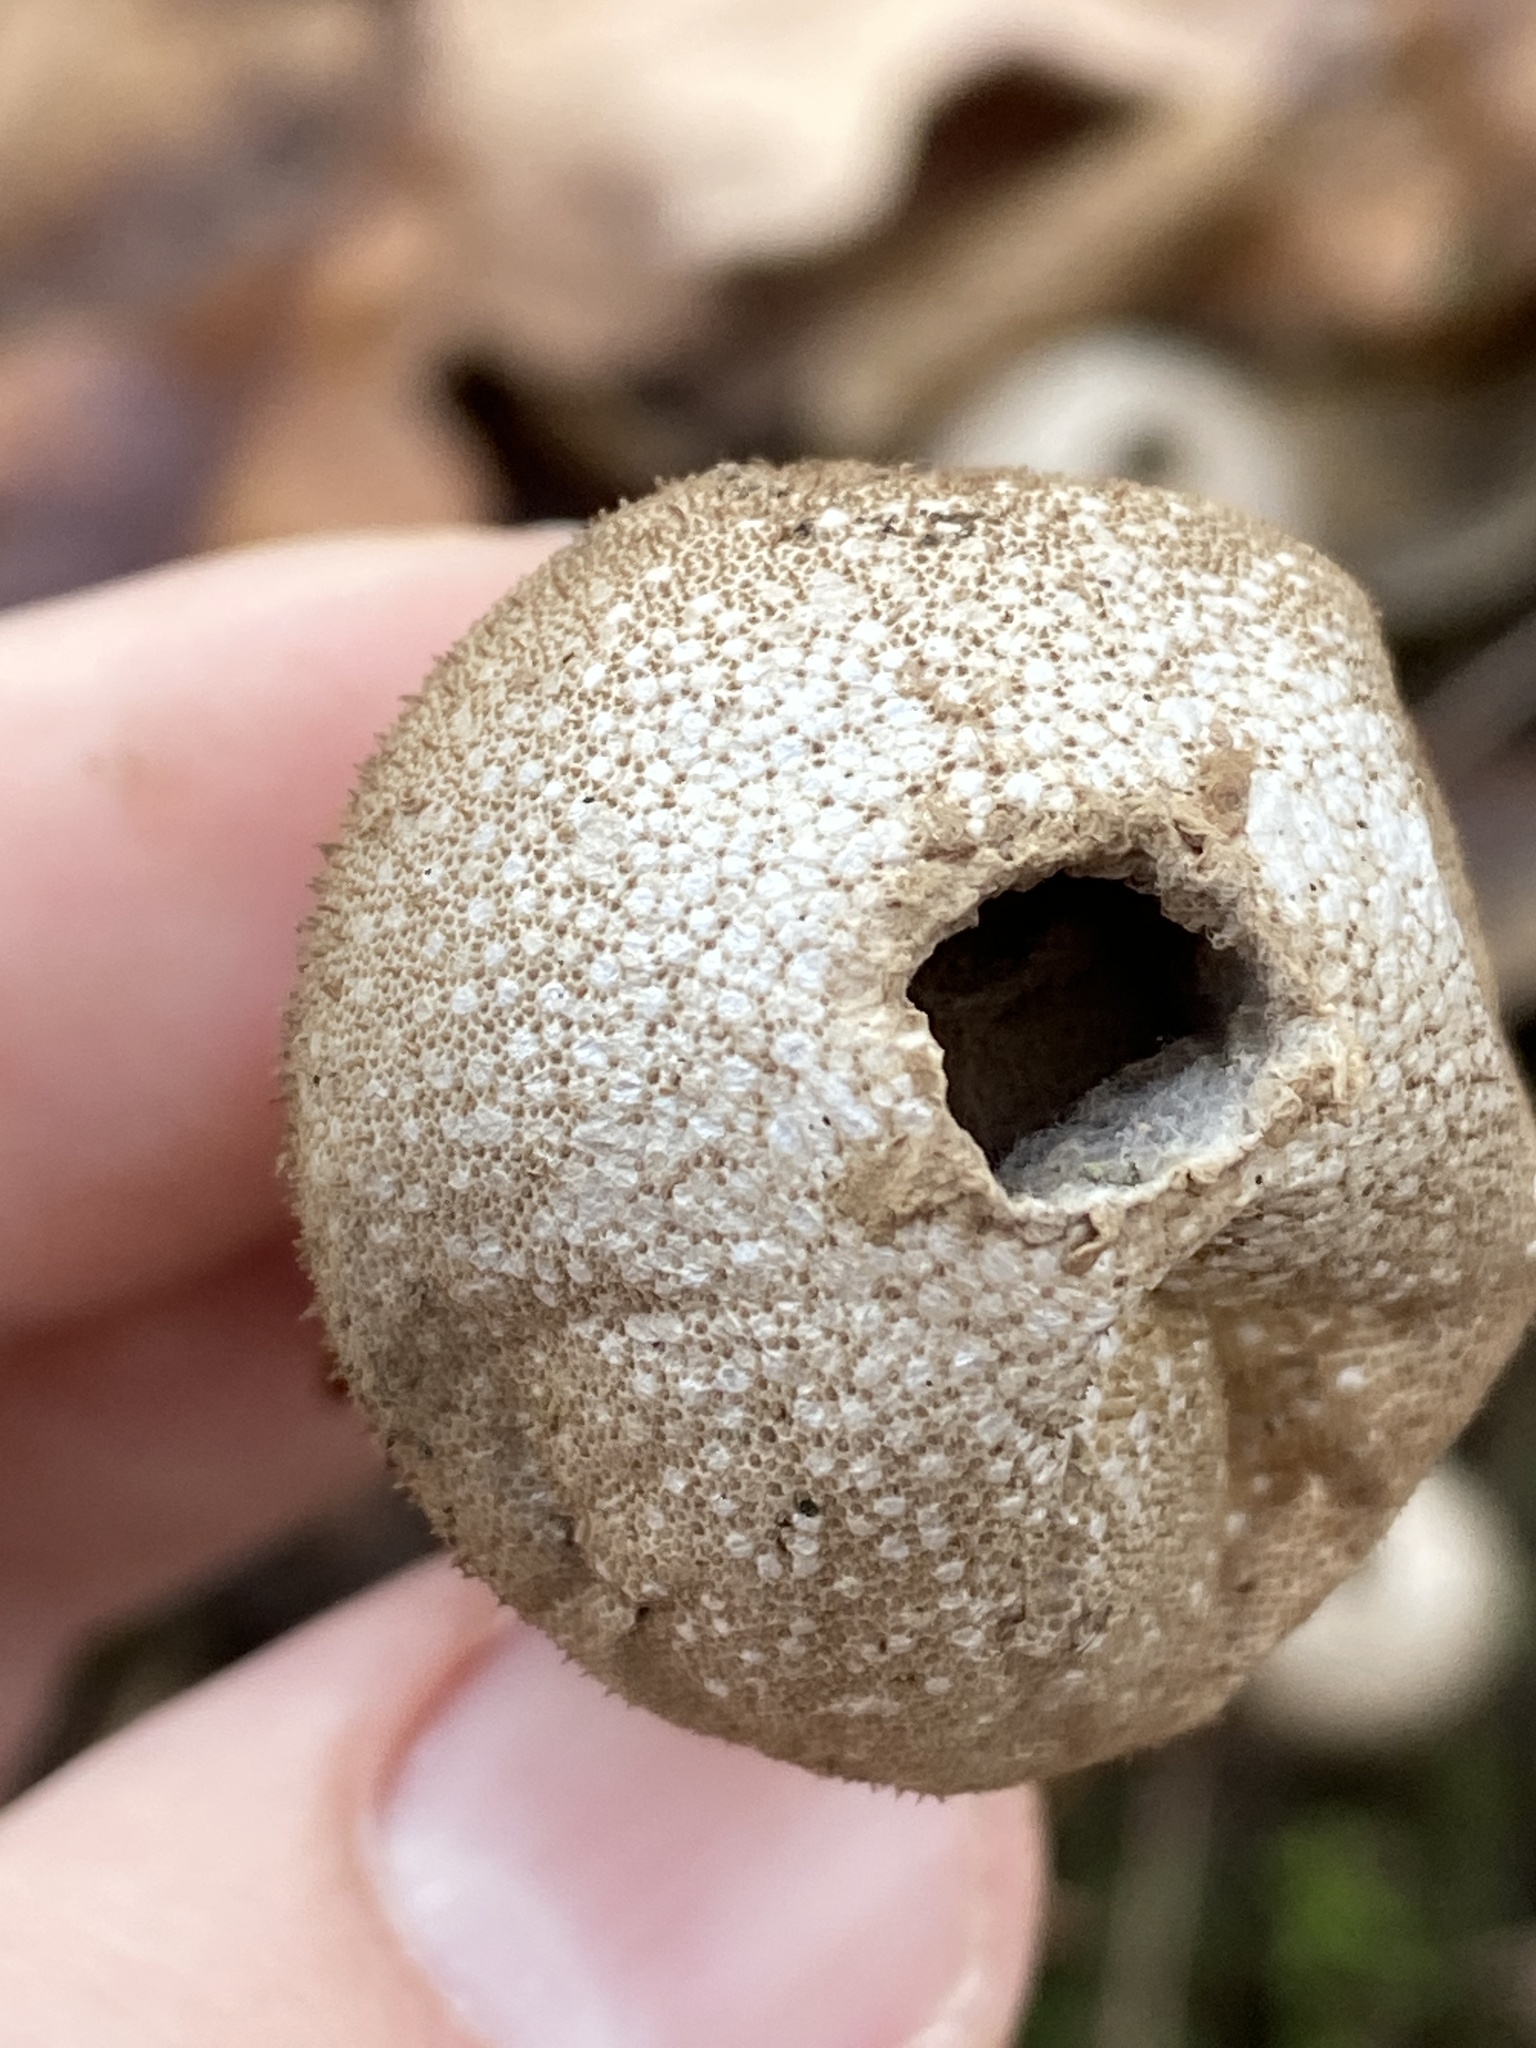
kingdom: Fungi
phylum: Basidiomycota
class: Agaricomycetes
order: Agaricales
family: Lycoperdaceae
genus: Lycoperdon
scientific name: Lycoperdon perlatum
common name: Common puffball
